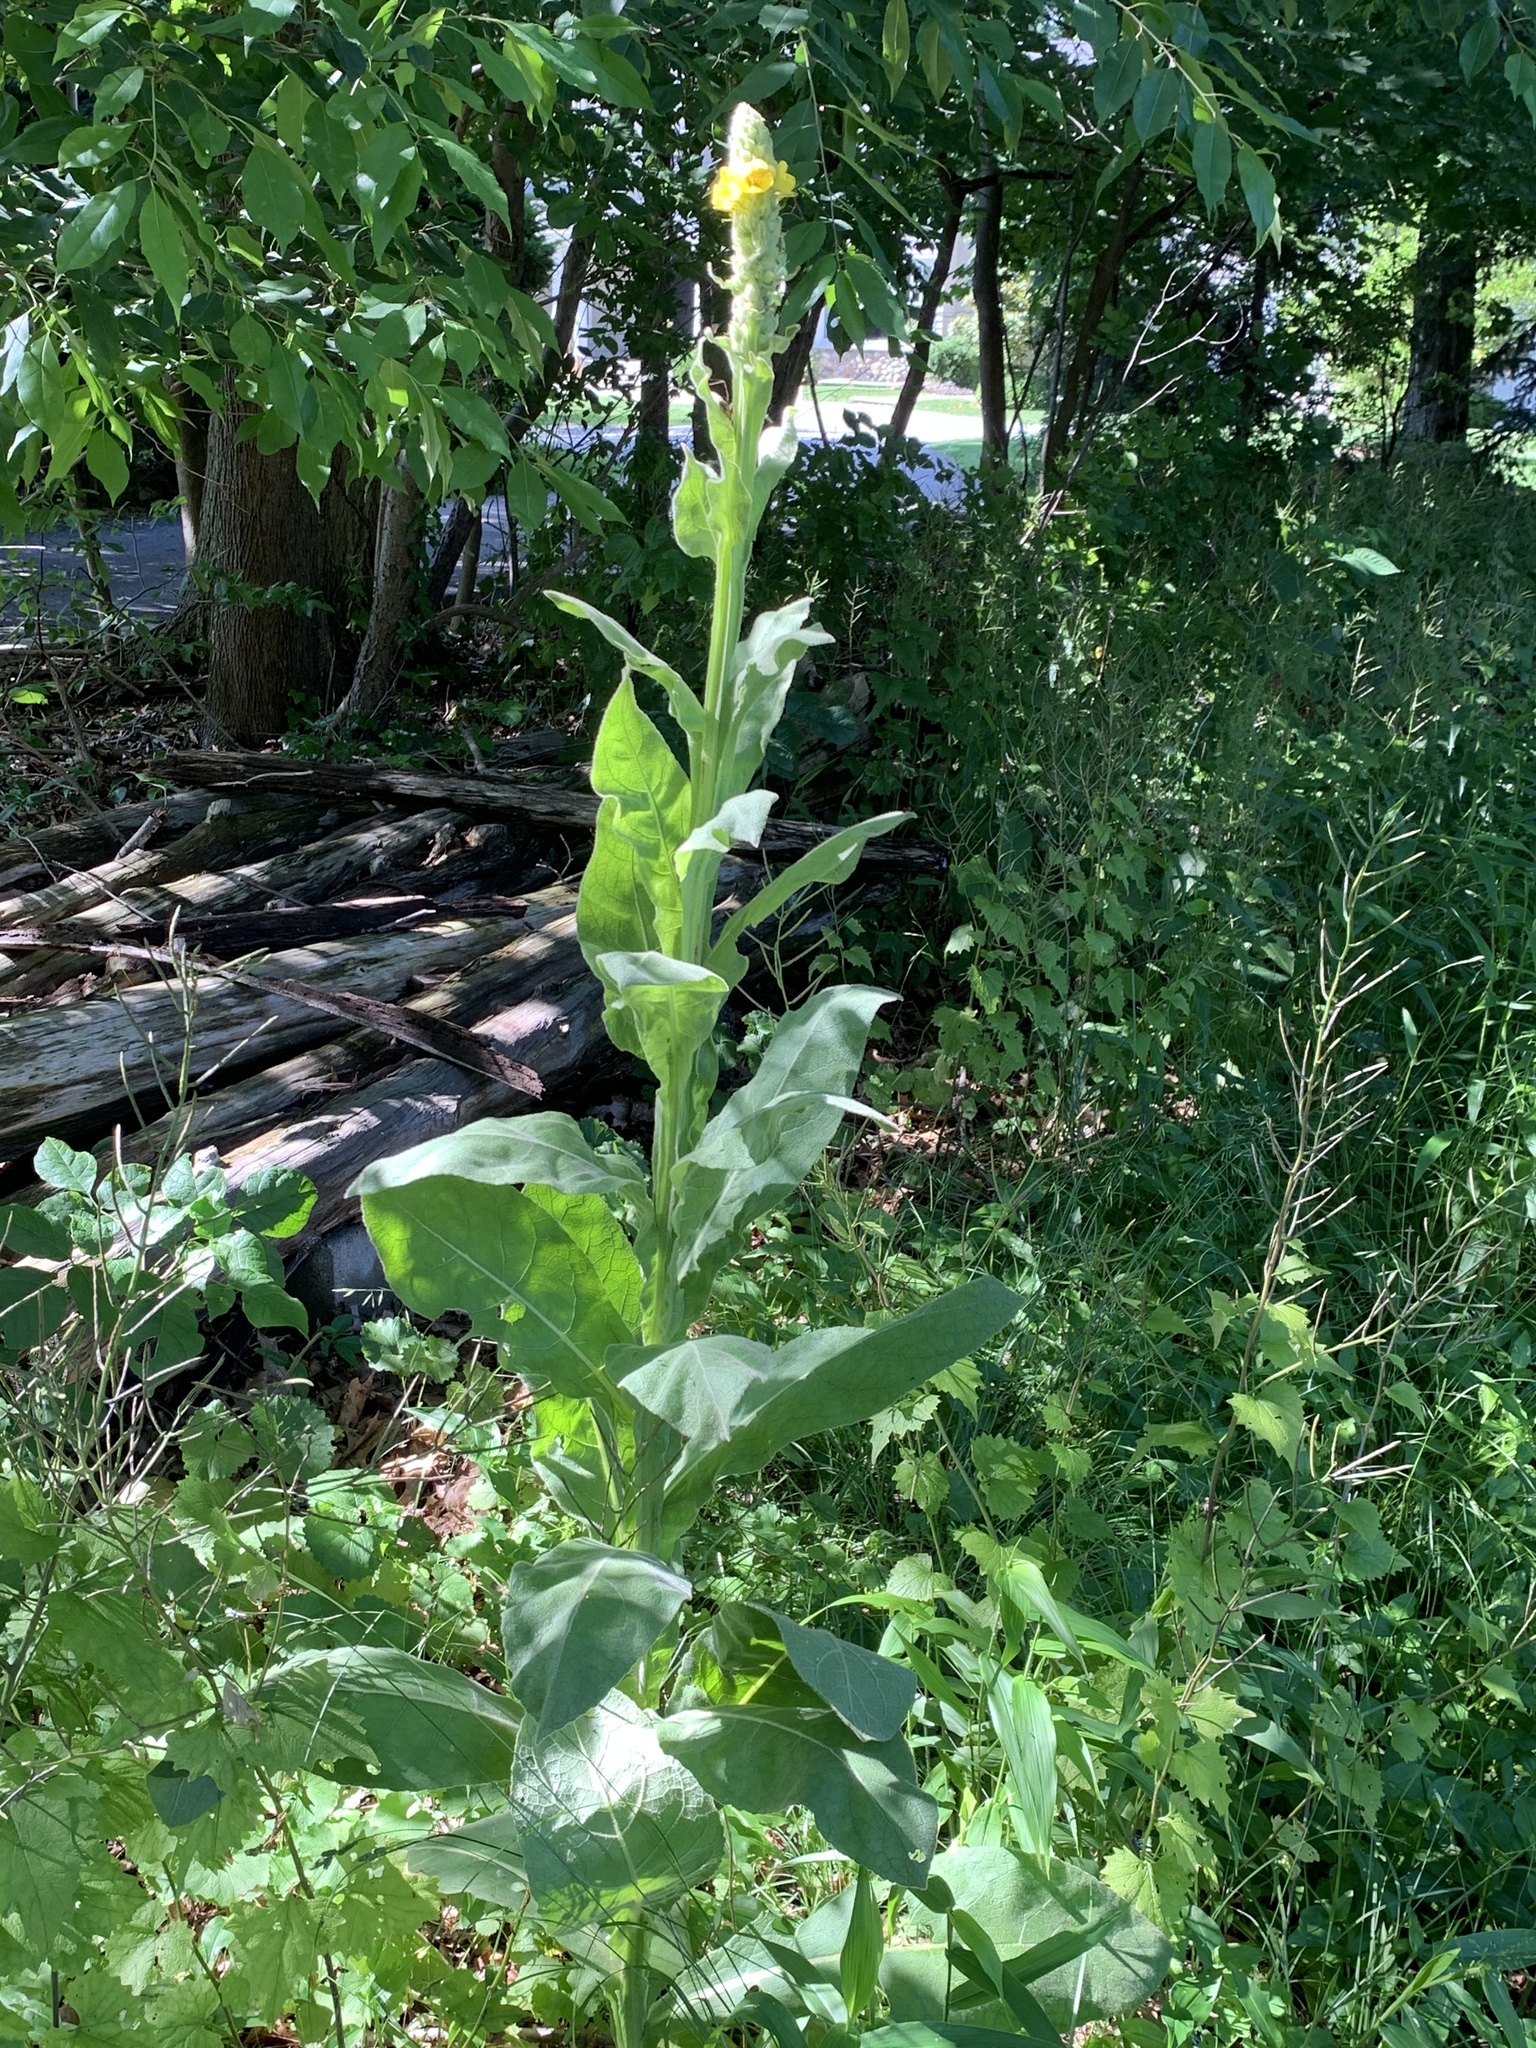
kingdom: Plantae
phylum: Tracheophyta
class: Magnoliopsida
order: Lamiales
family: Scrophulariaceae
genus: Verbascum
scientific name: Verbascum thapsus
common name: Common mullein
